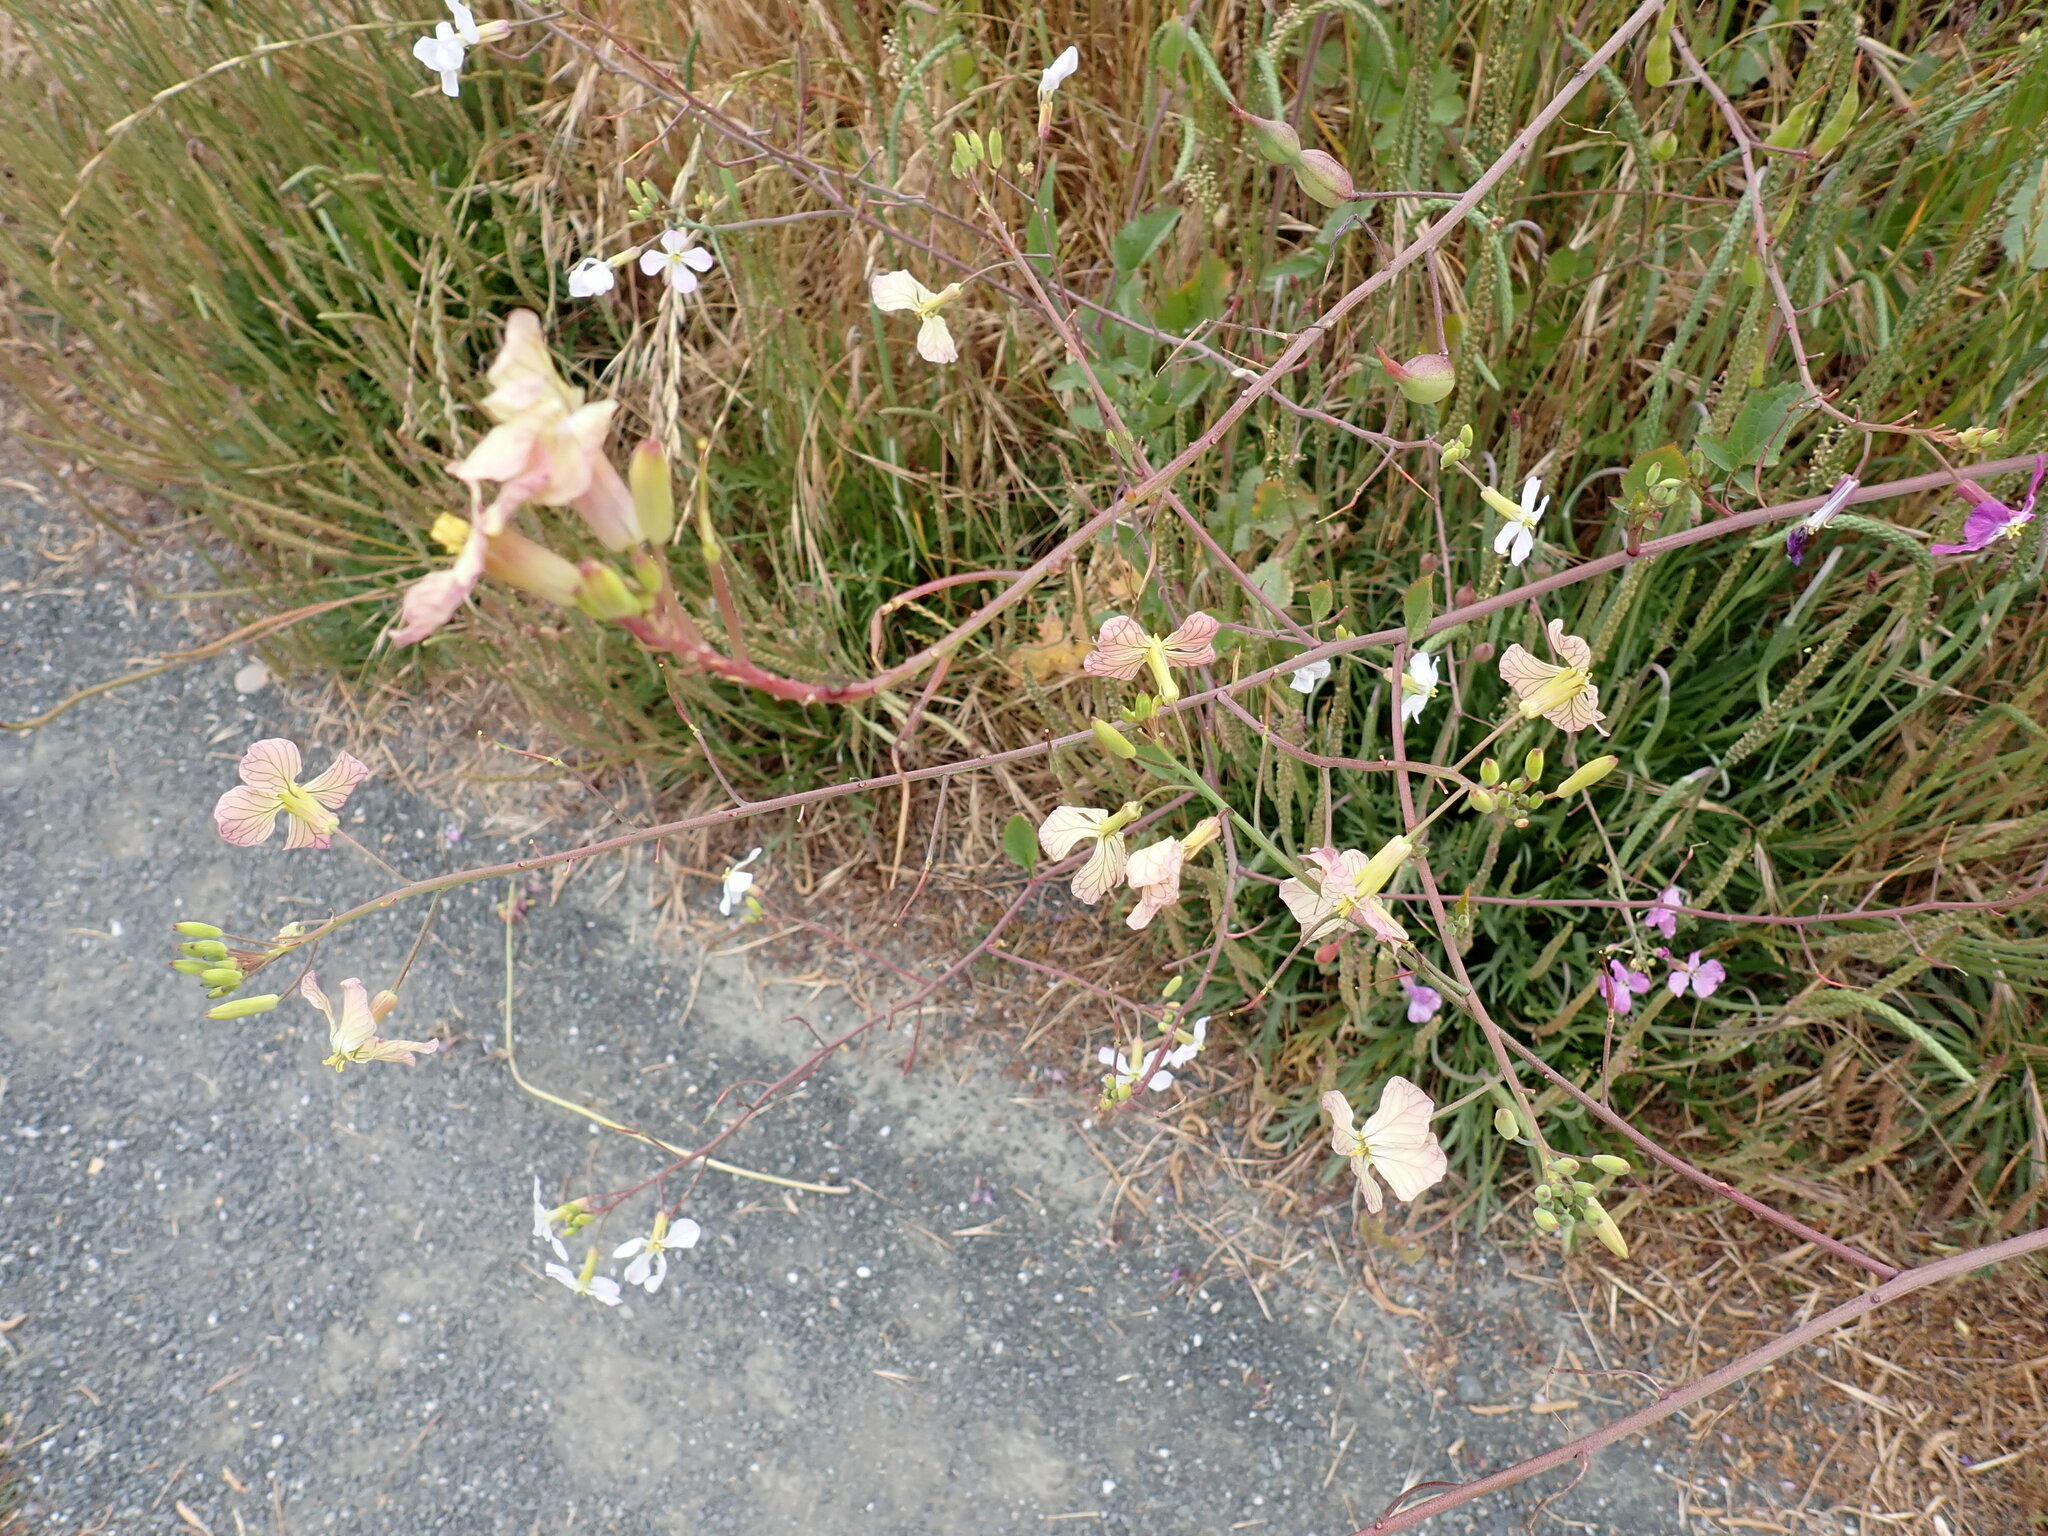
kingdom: Plantae
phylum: Tracheophyta
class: Magnoliopsida
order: Brassicales
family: Brassicaceae
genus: Raphanus
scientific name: Raphanus sativus
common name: Cultivated radish
